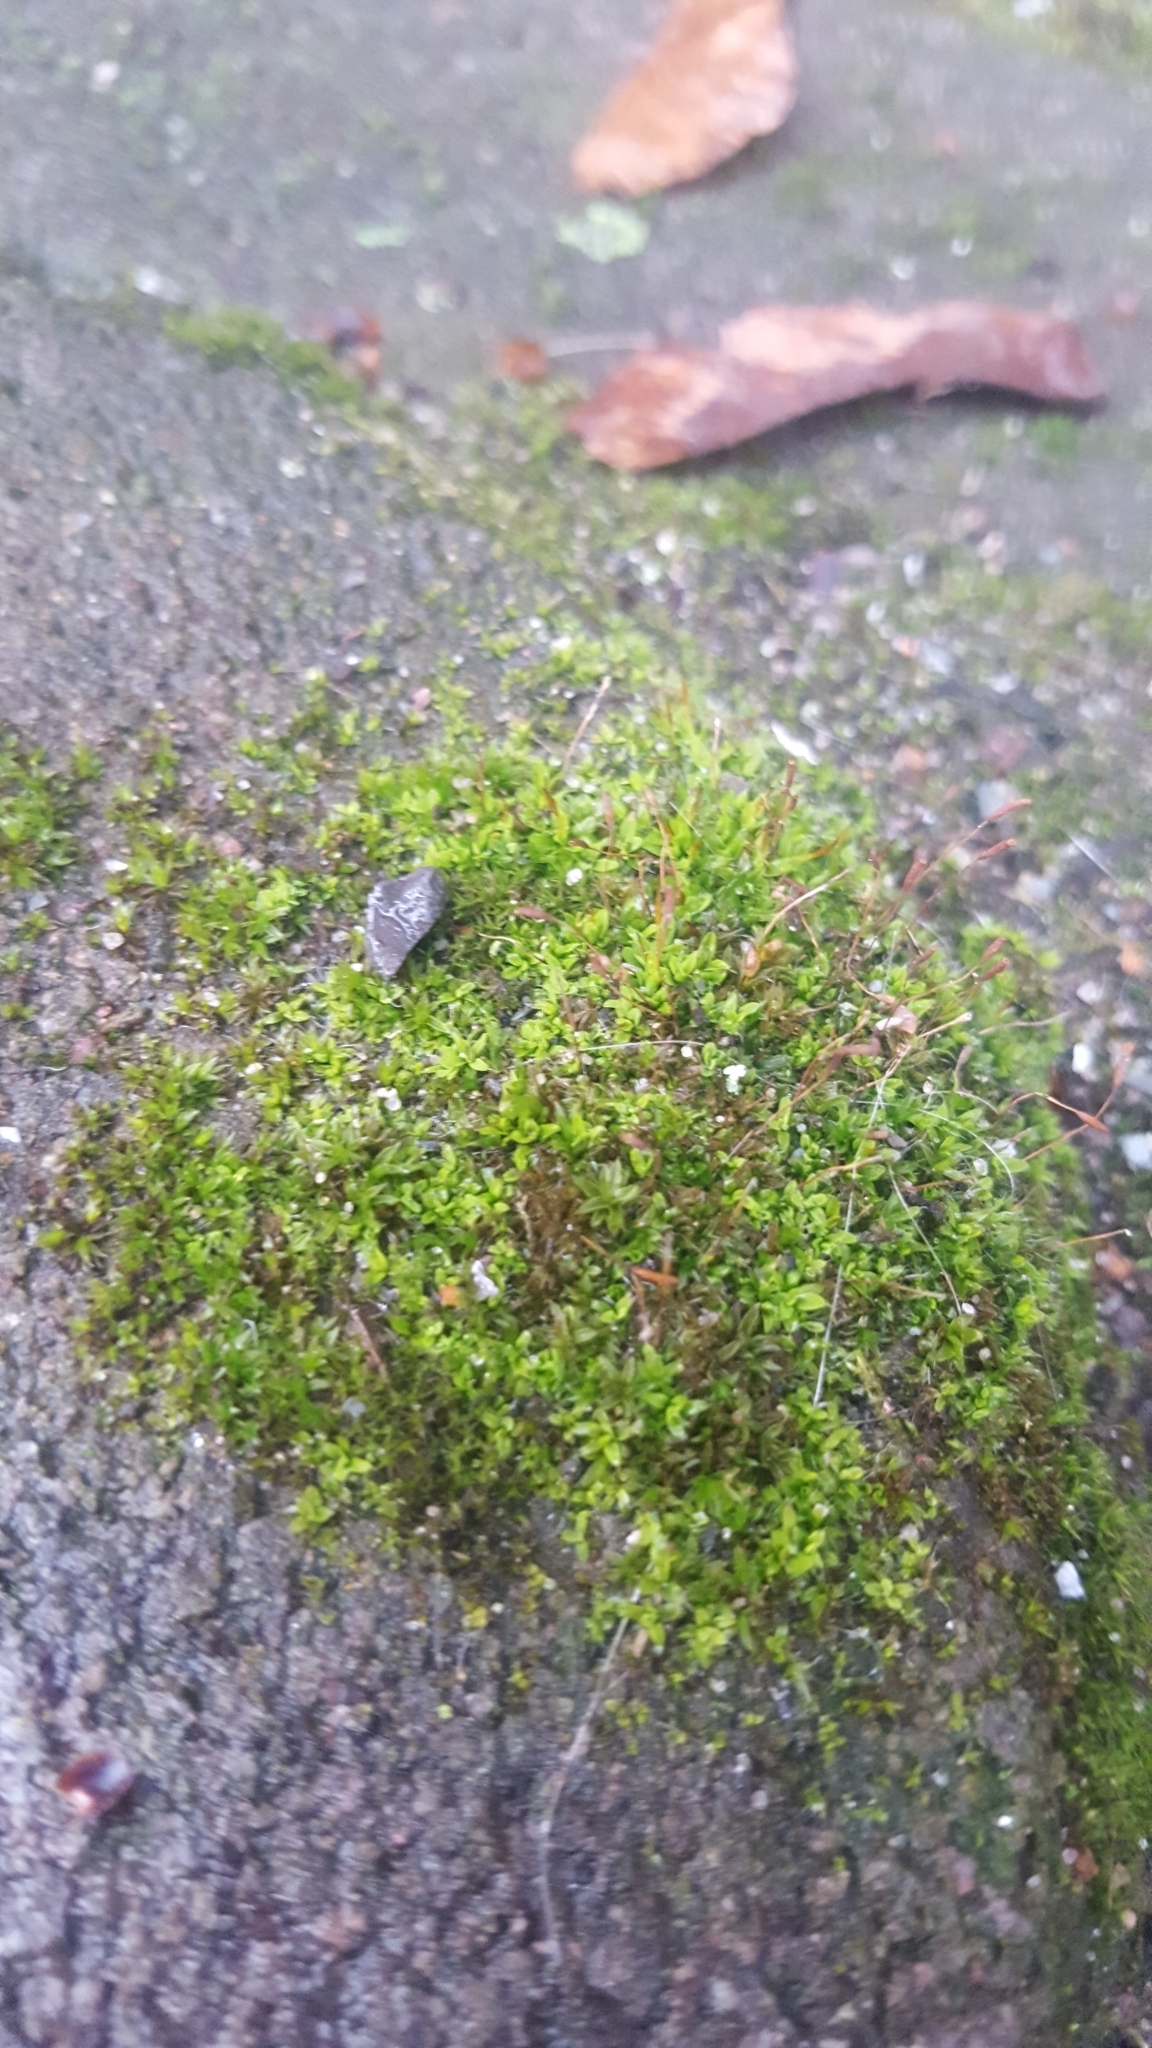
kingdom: Plantae
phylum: Bryophyta
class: Bryopsida
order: Pottiales
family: Pottiaceae
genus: Tortula
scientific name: Tortula muralis
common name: Wall screw-moss
